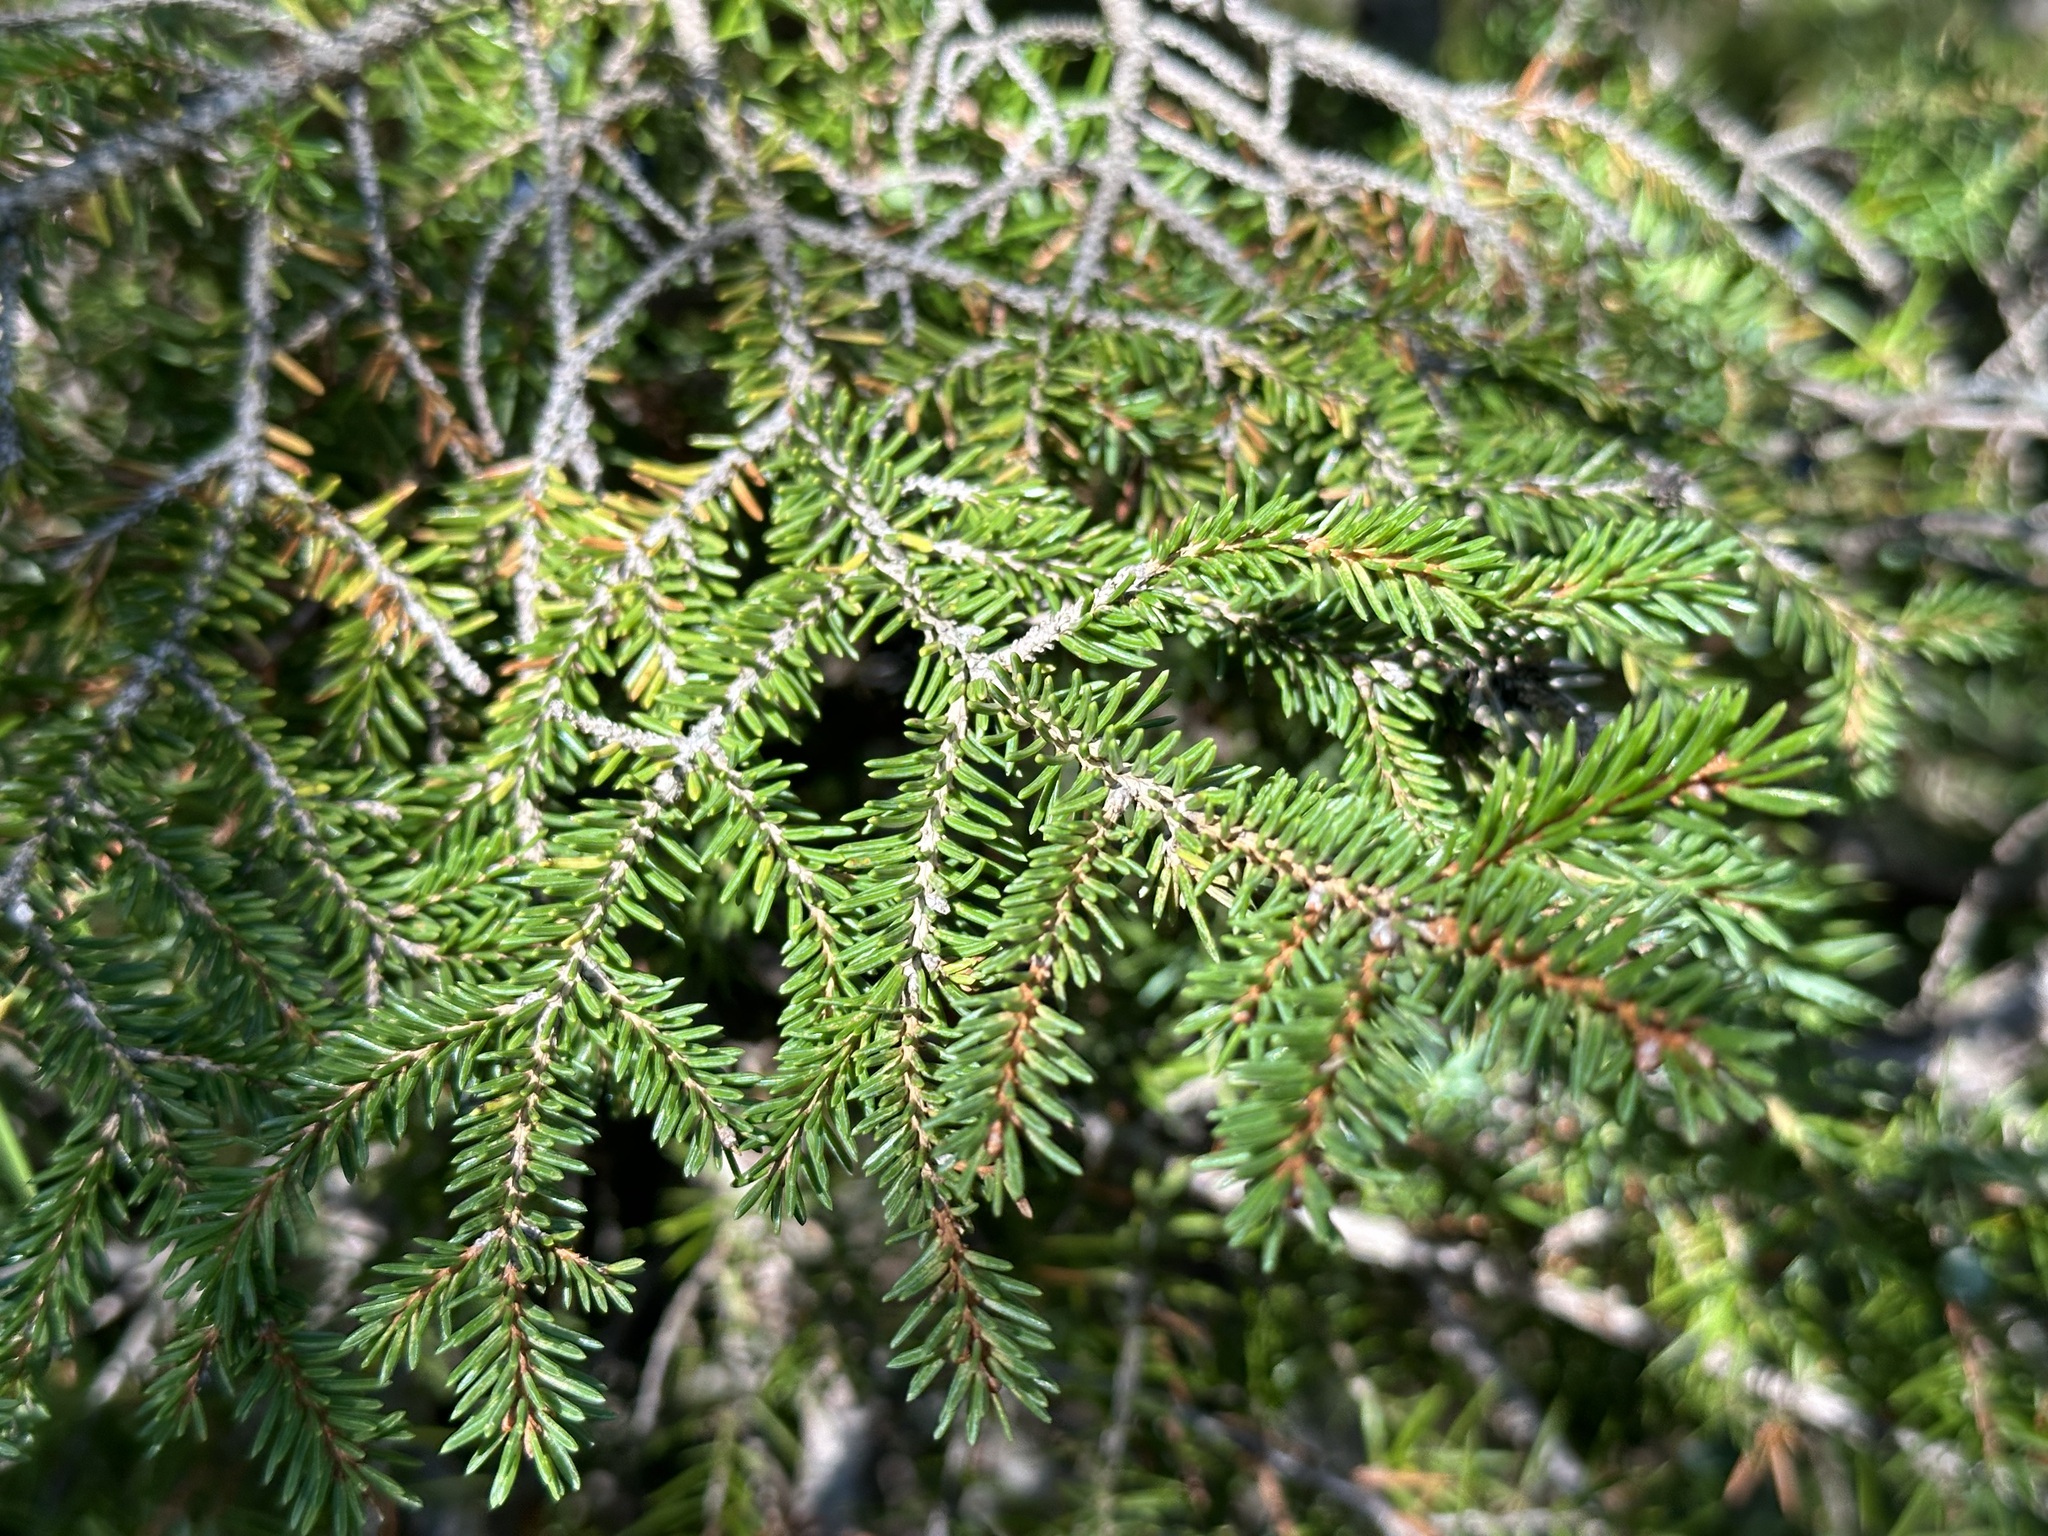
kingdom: Plantae
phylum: Tracheophyta
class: Pinopsida
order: Pinales
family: Pinaceae
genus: Picea
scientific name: Picea abies
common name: Norway spruce
